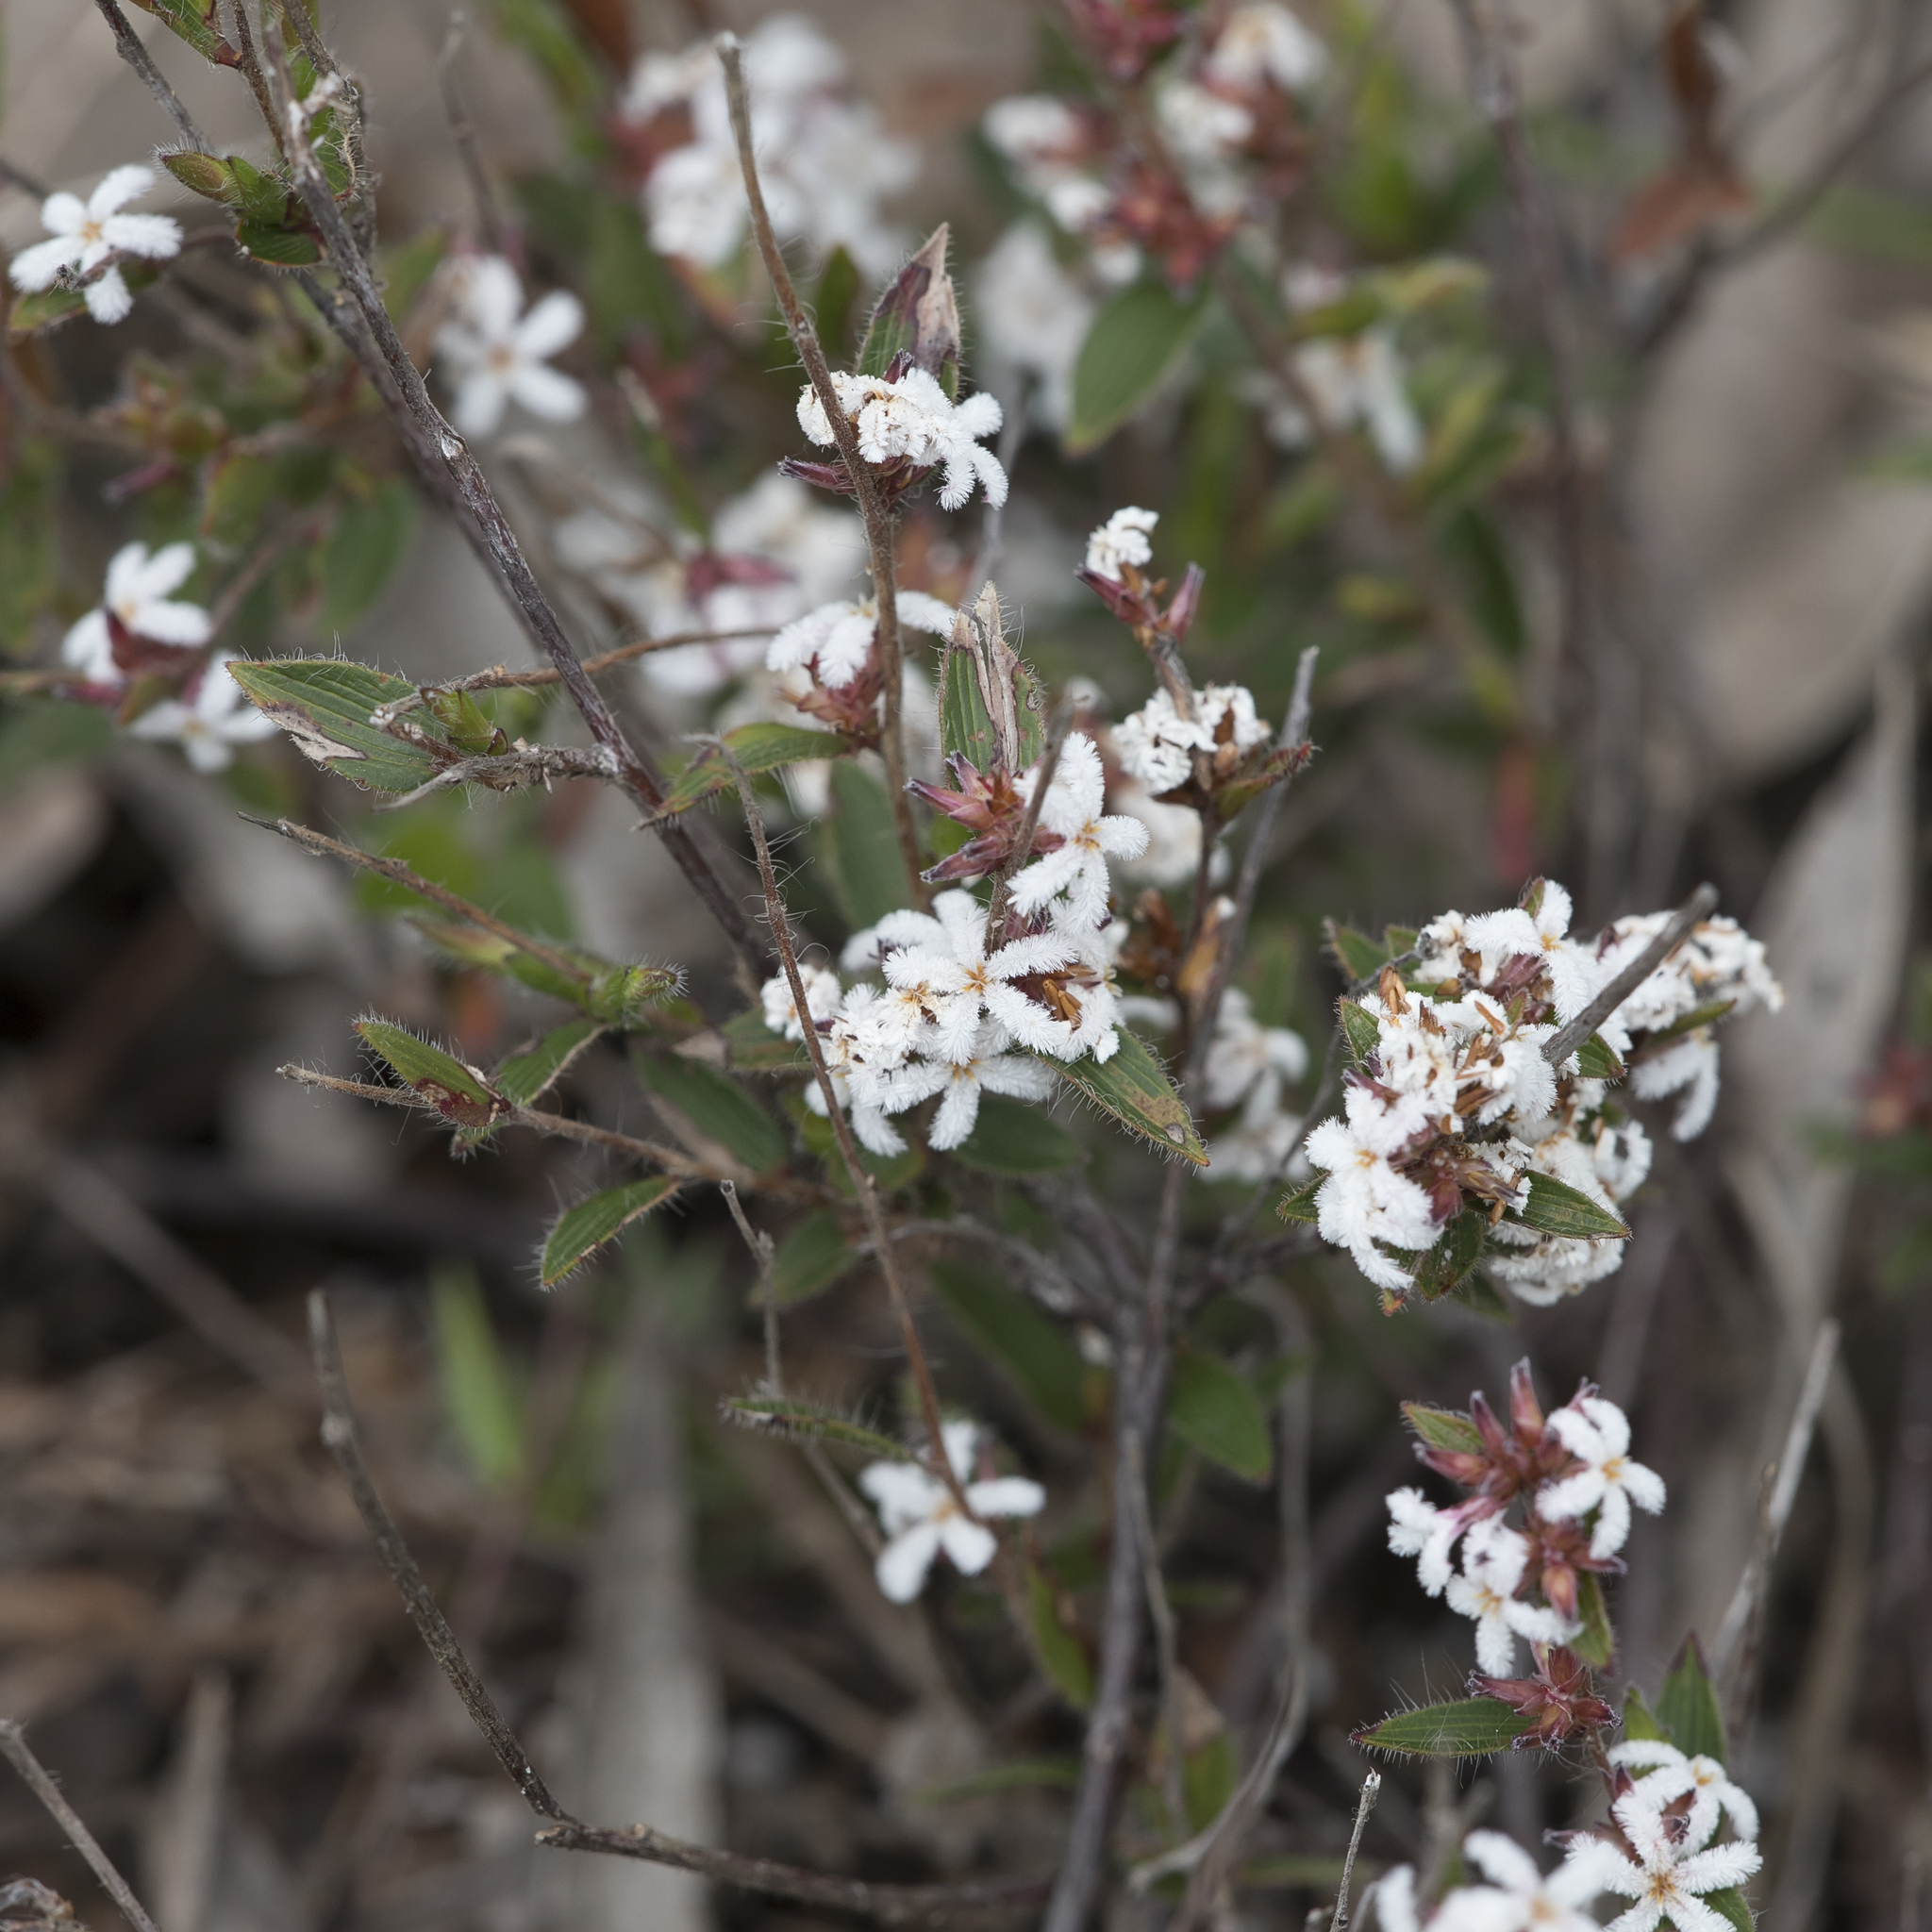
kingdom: Plantae
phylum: Tracheophyta
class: Magnoliopsida
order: Ericales
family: Ericaceae
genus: Leucopogon
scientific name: Leucopogon concurvus
